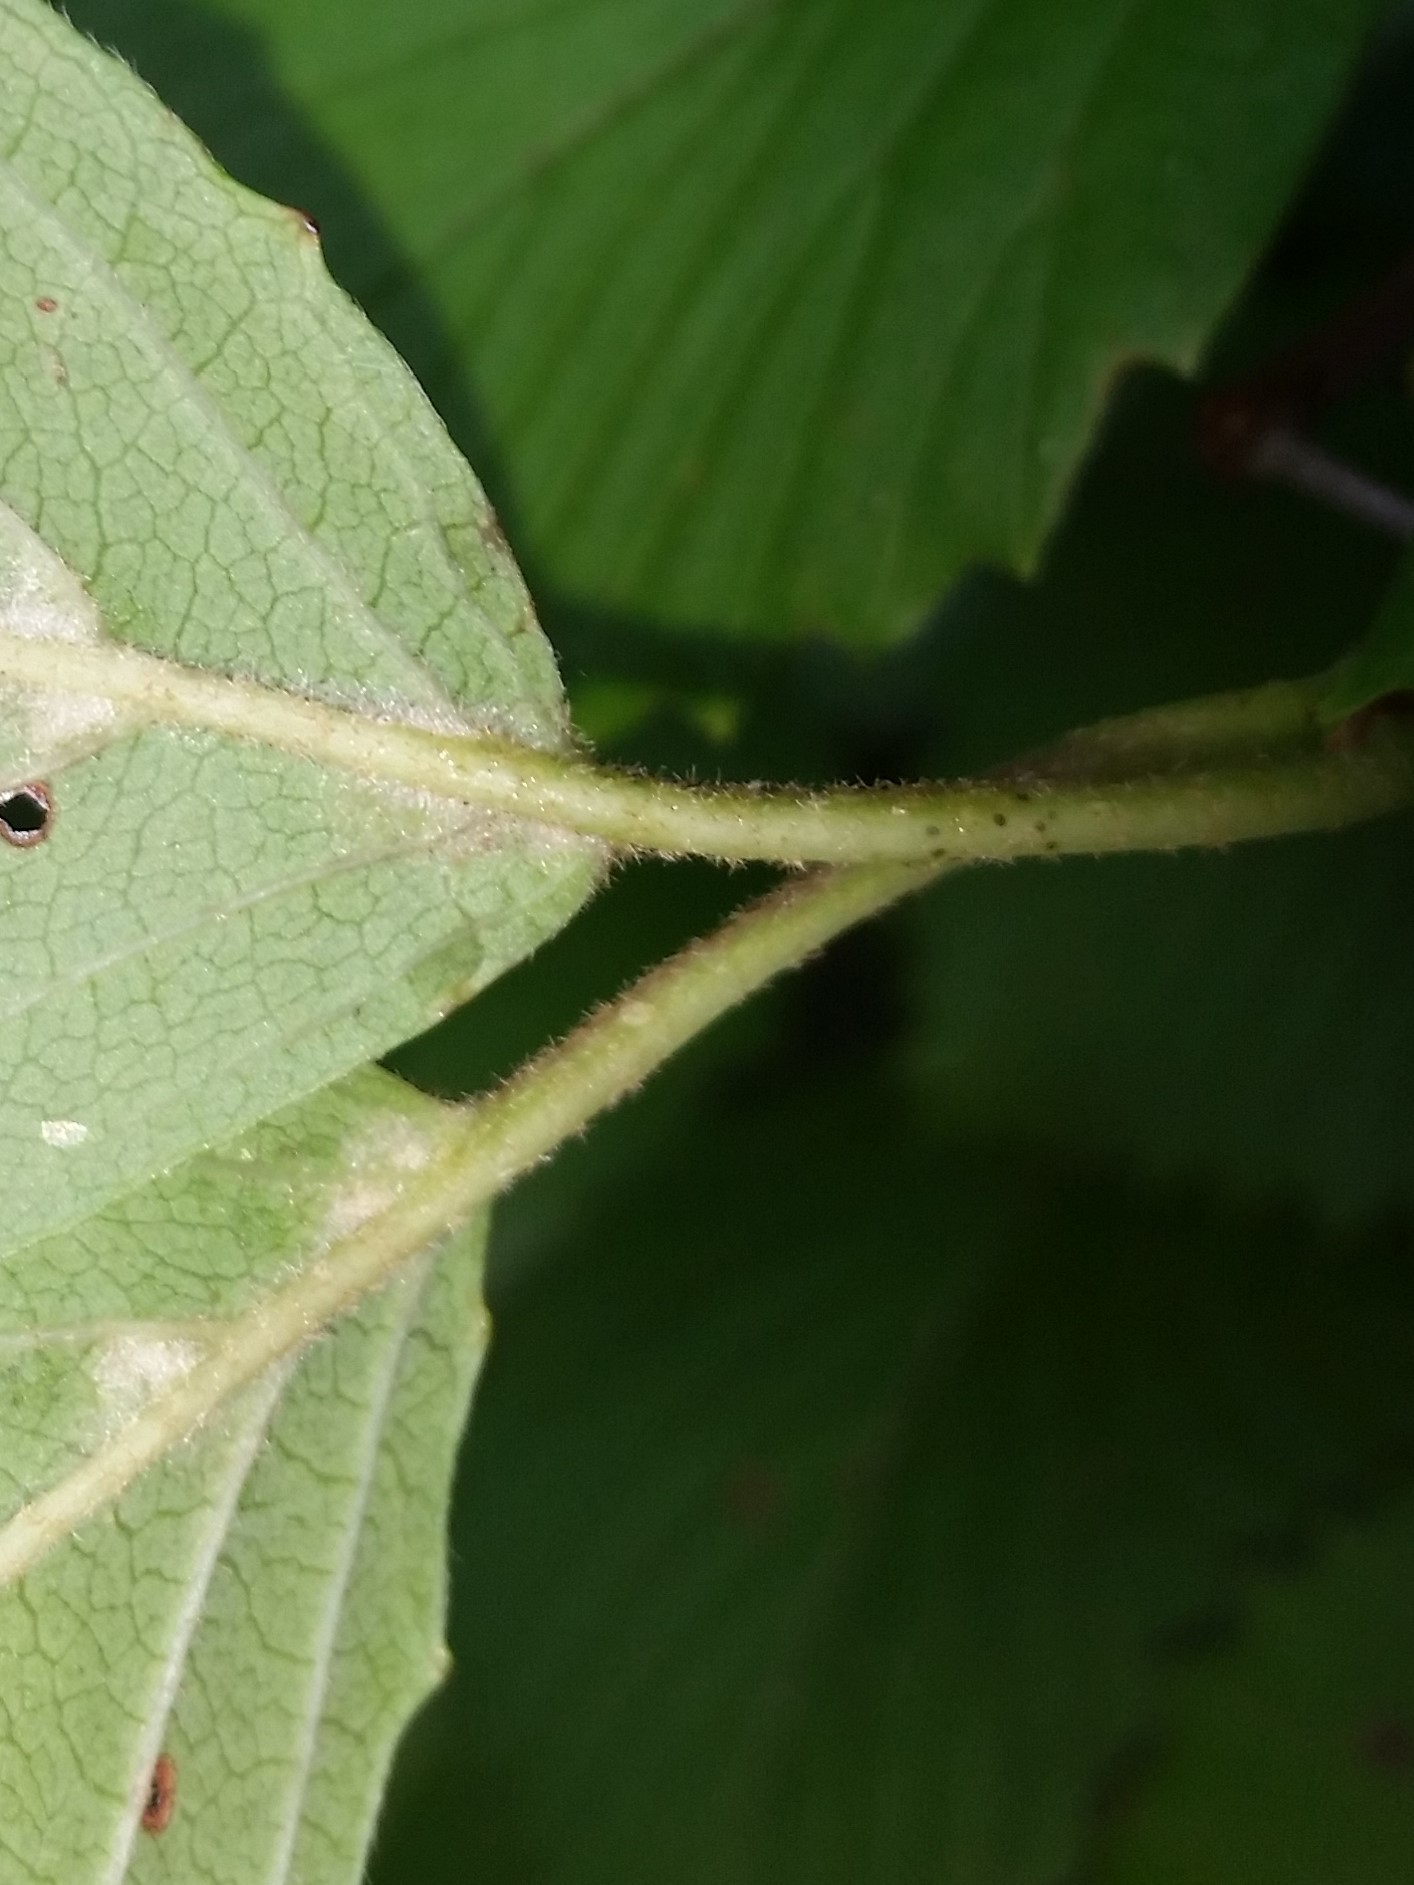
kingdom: Plantae
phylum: Tracheophyta
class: Magnoliopsida
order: Dipsacales
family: Viburnaceae
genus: Viburnum
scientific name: Viburnum venosum
